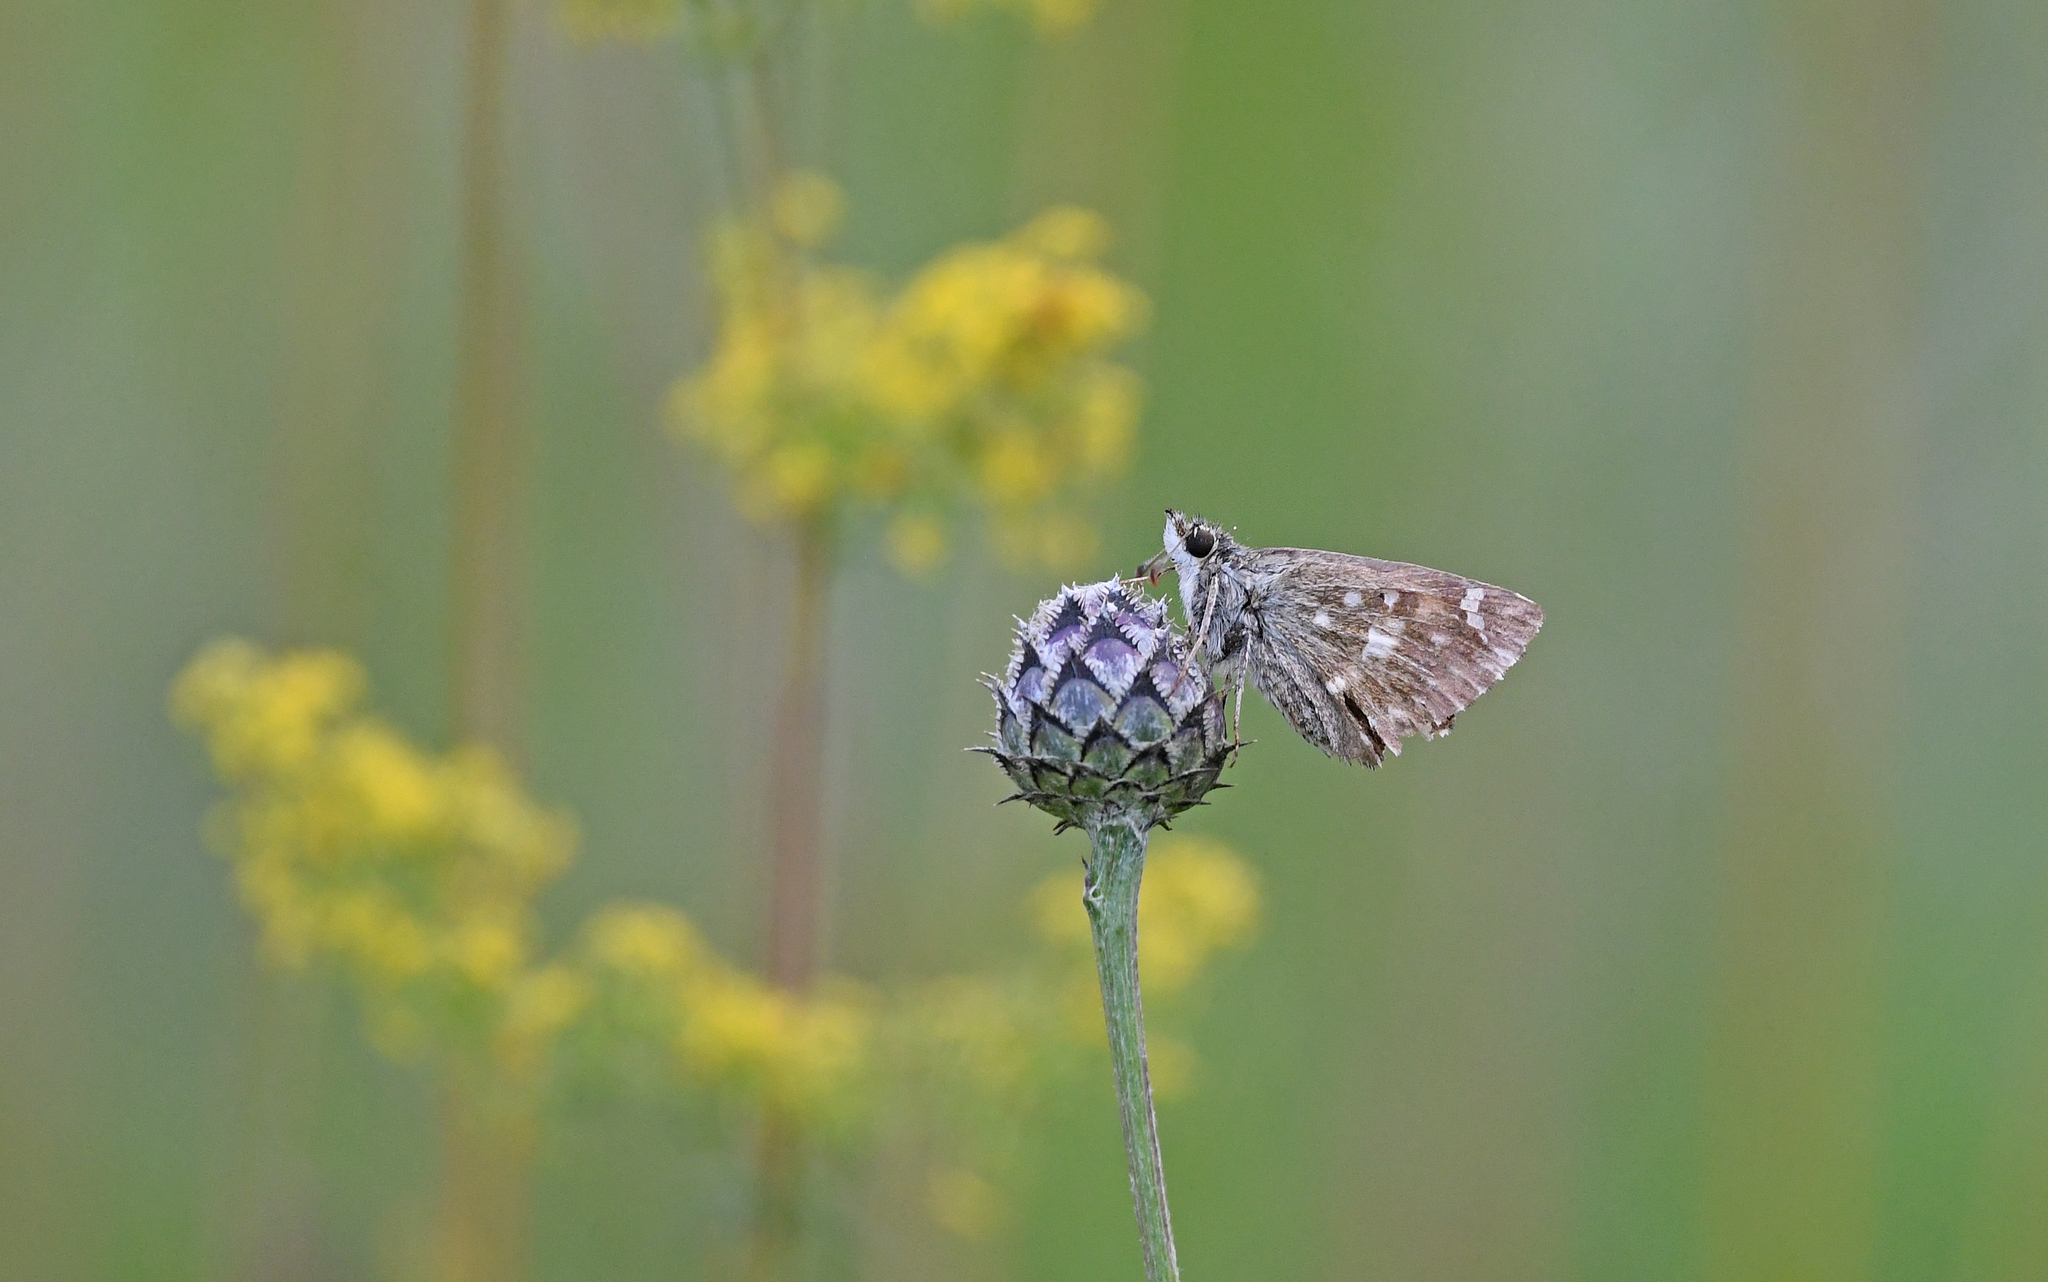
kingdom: Animalia
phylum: Arthropoda
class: Insecta
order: Lepidoptera
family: Hesperiidae
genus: Carcharodus
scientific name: Carcharodus alceae
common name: Mallow skipper
